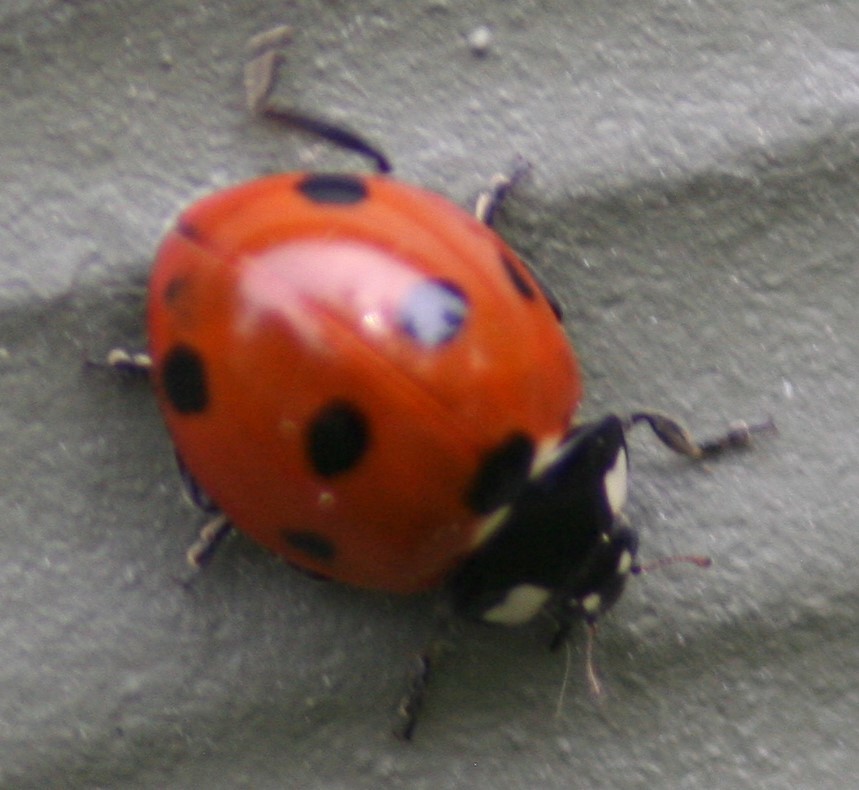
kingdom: Animalia
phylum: Arthropoda
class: Insecta
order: Coleoptera
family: Coccinellidae
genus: Coccinella
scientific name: Coccinella septempunctata
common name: Sevenspotted lady beetle
